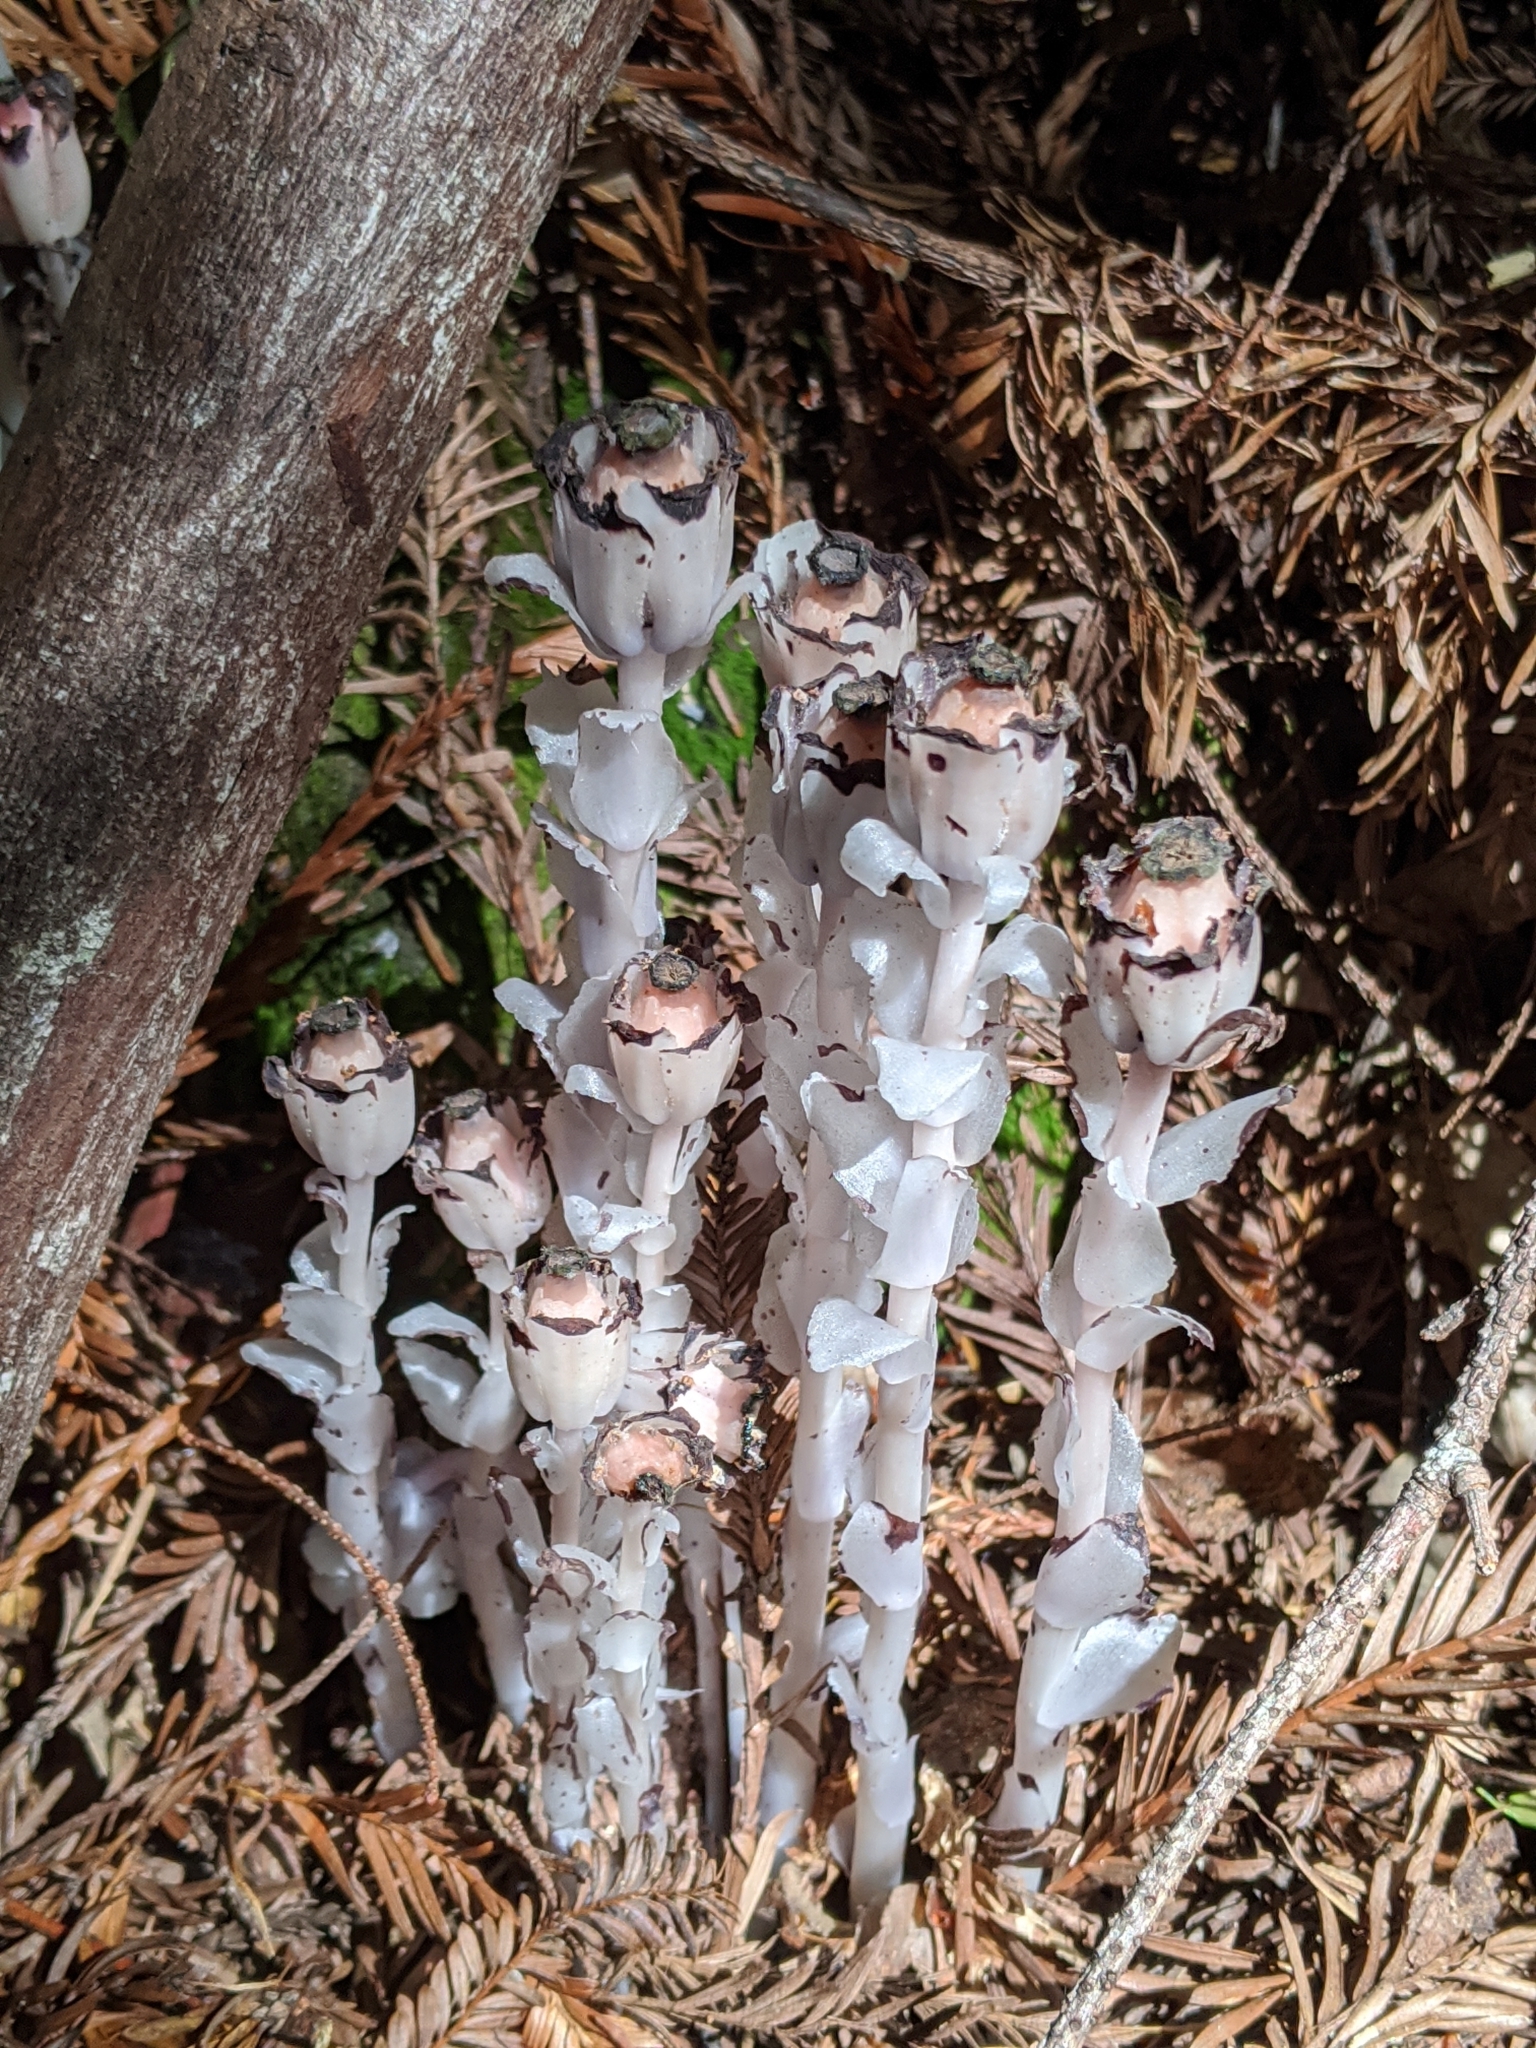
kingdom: Plantae
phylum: Tracheophyta
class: Magnoliopsida
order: Ericales
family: Ericaceae
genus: Monotropa
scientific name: Monotropa uniflora
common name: Convulsion root
